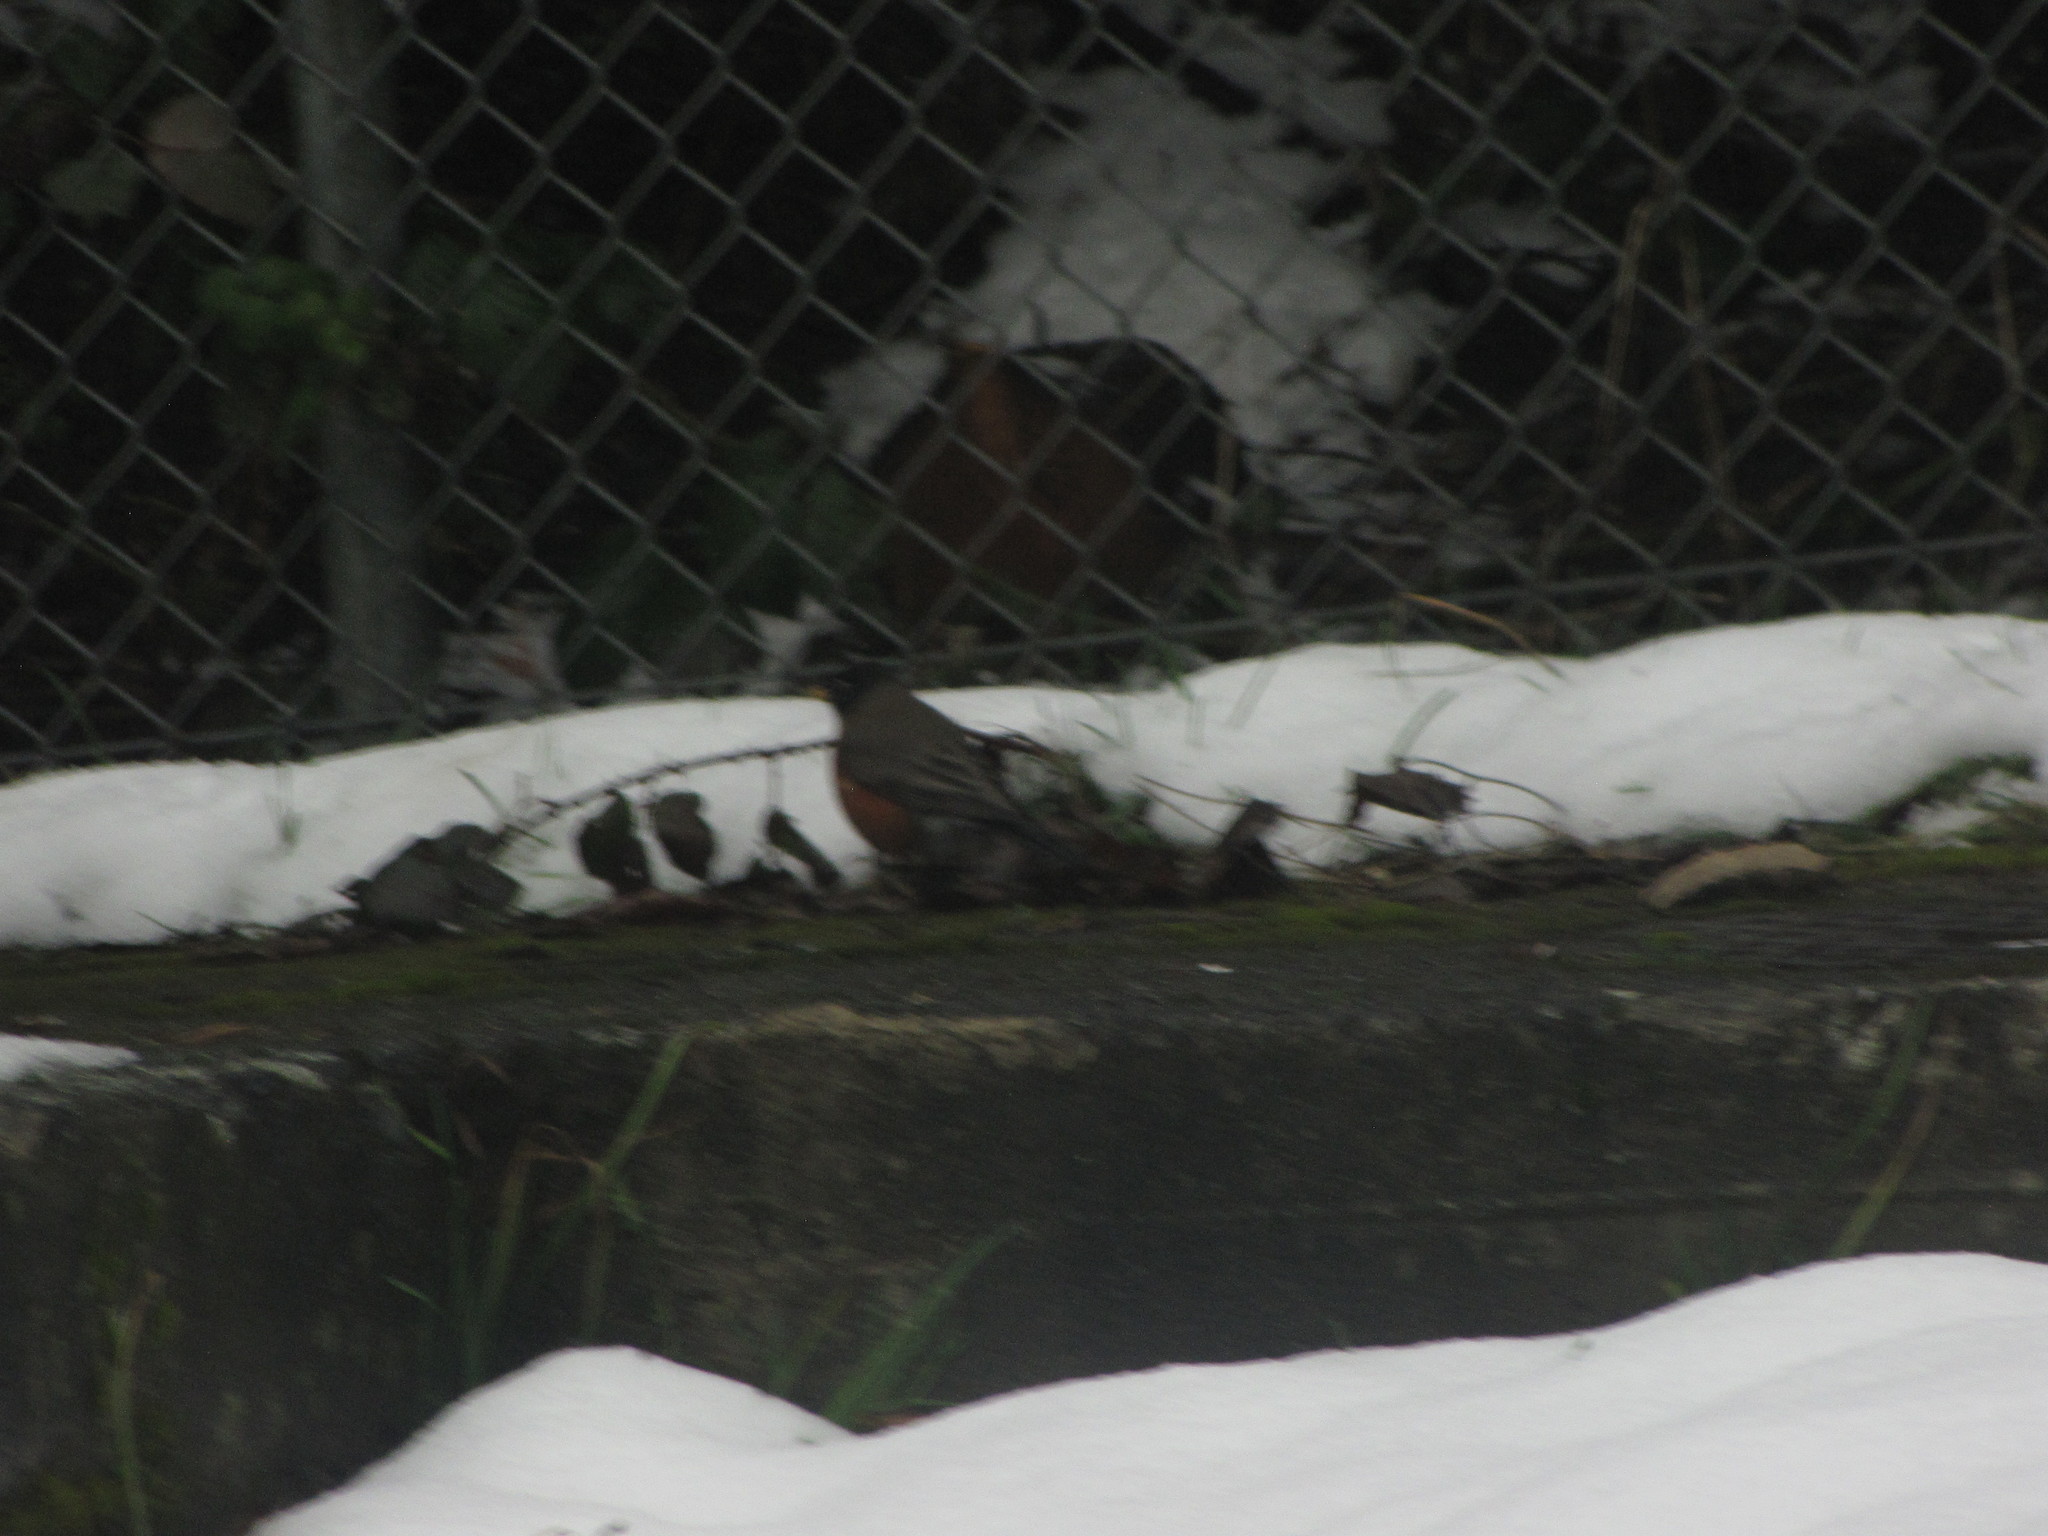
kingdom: Animalia
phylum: Chordata
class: Aves
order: Passeriformes
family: Turdidae
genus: Turdus
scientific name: Turdus migratorius
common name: American robin
